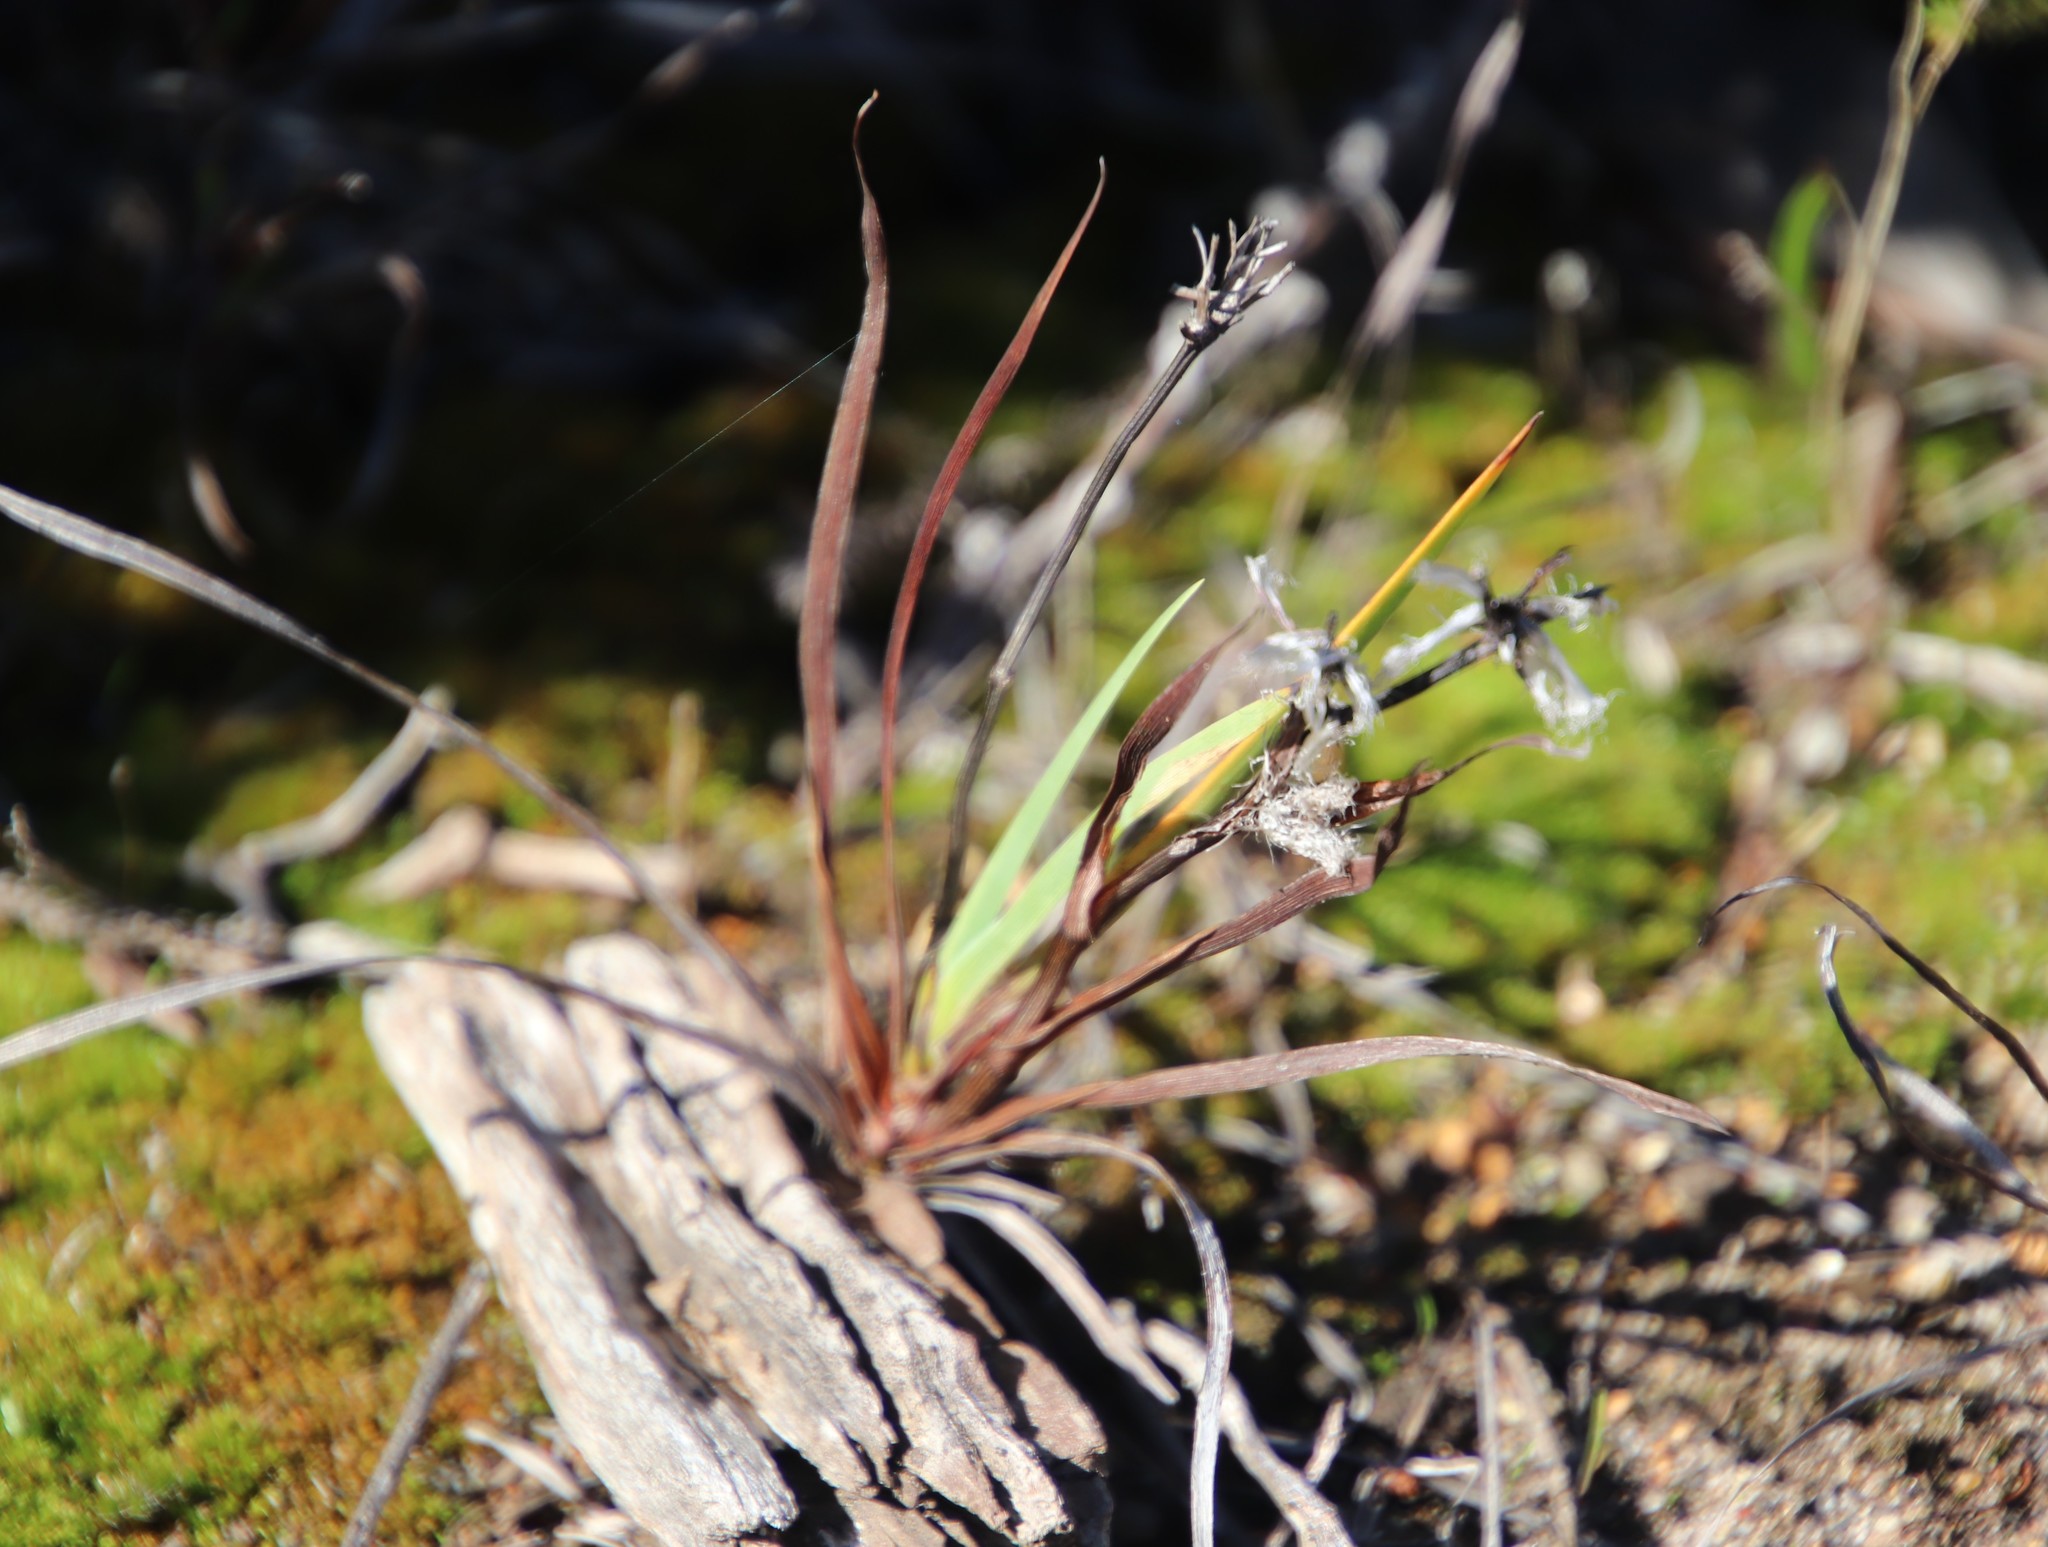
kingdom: Plantae
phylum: Tracheophyta
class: Liliopsida
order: Asparagales
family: Iridaceae
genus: Aristea
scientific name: Aristea africana
